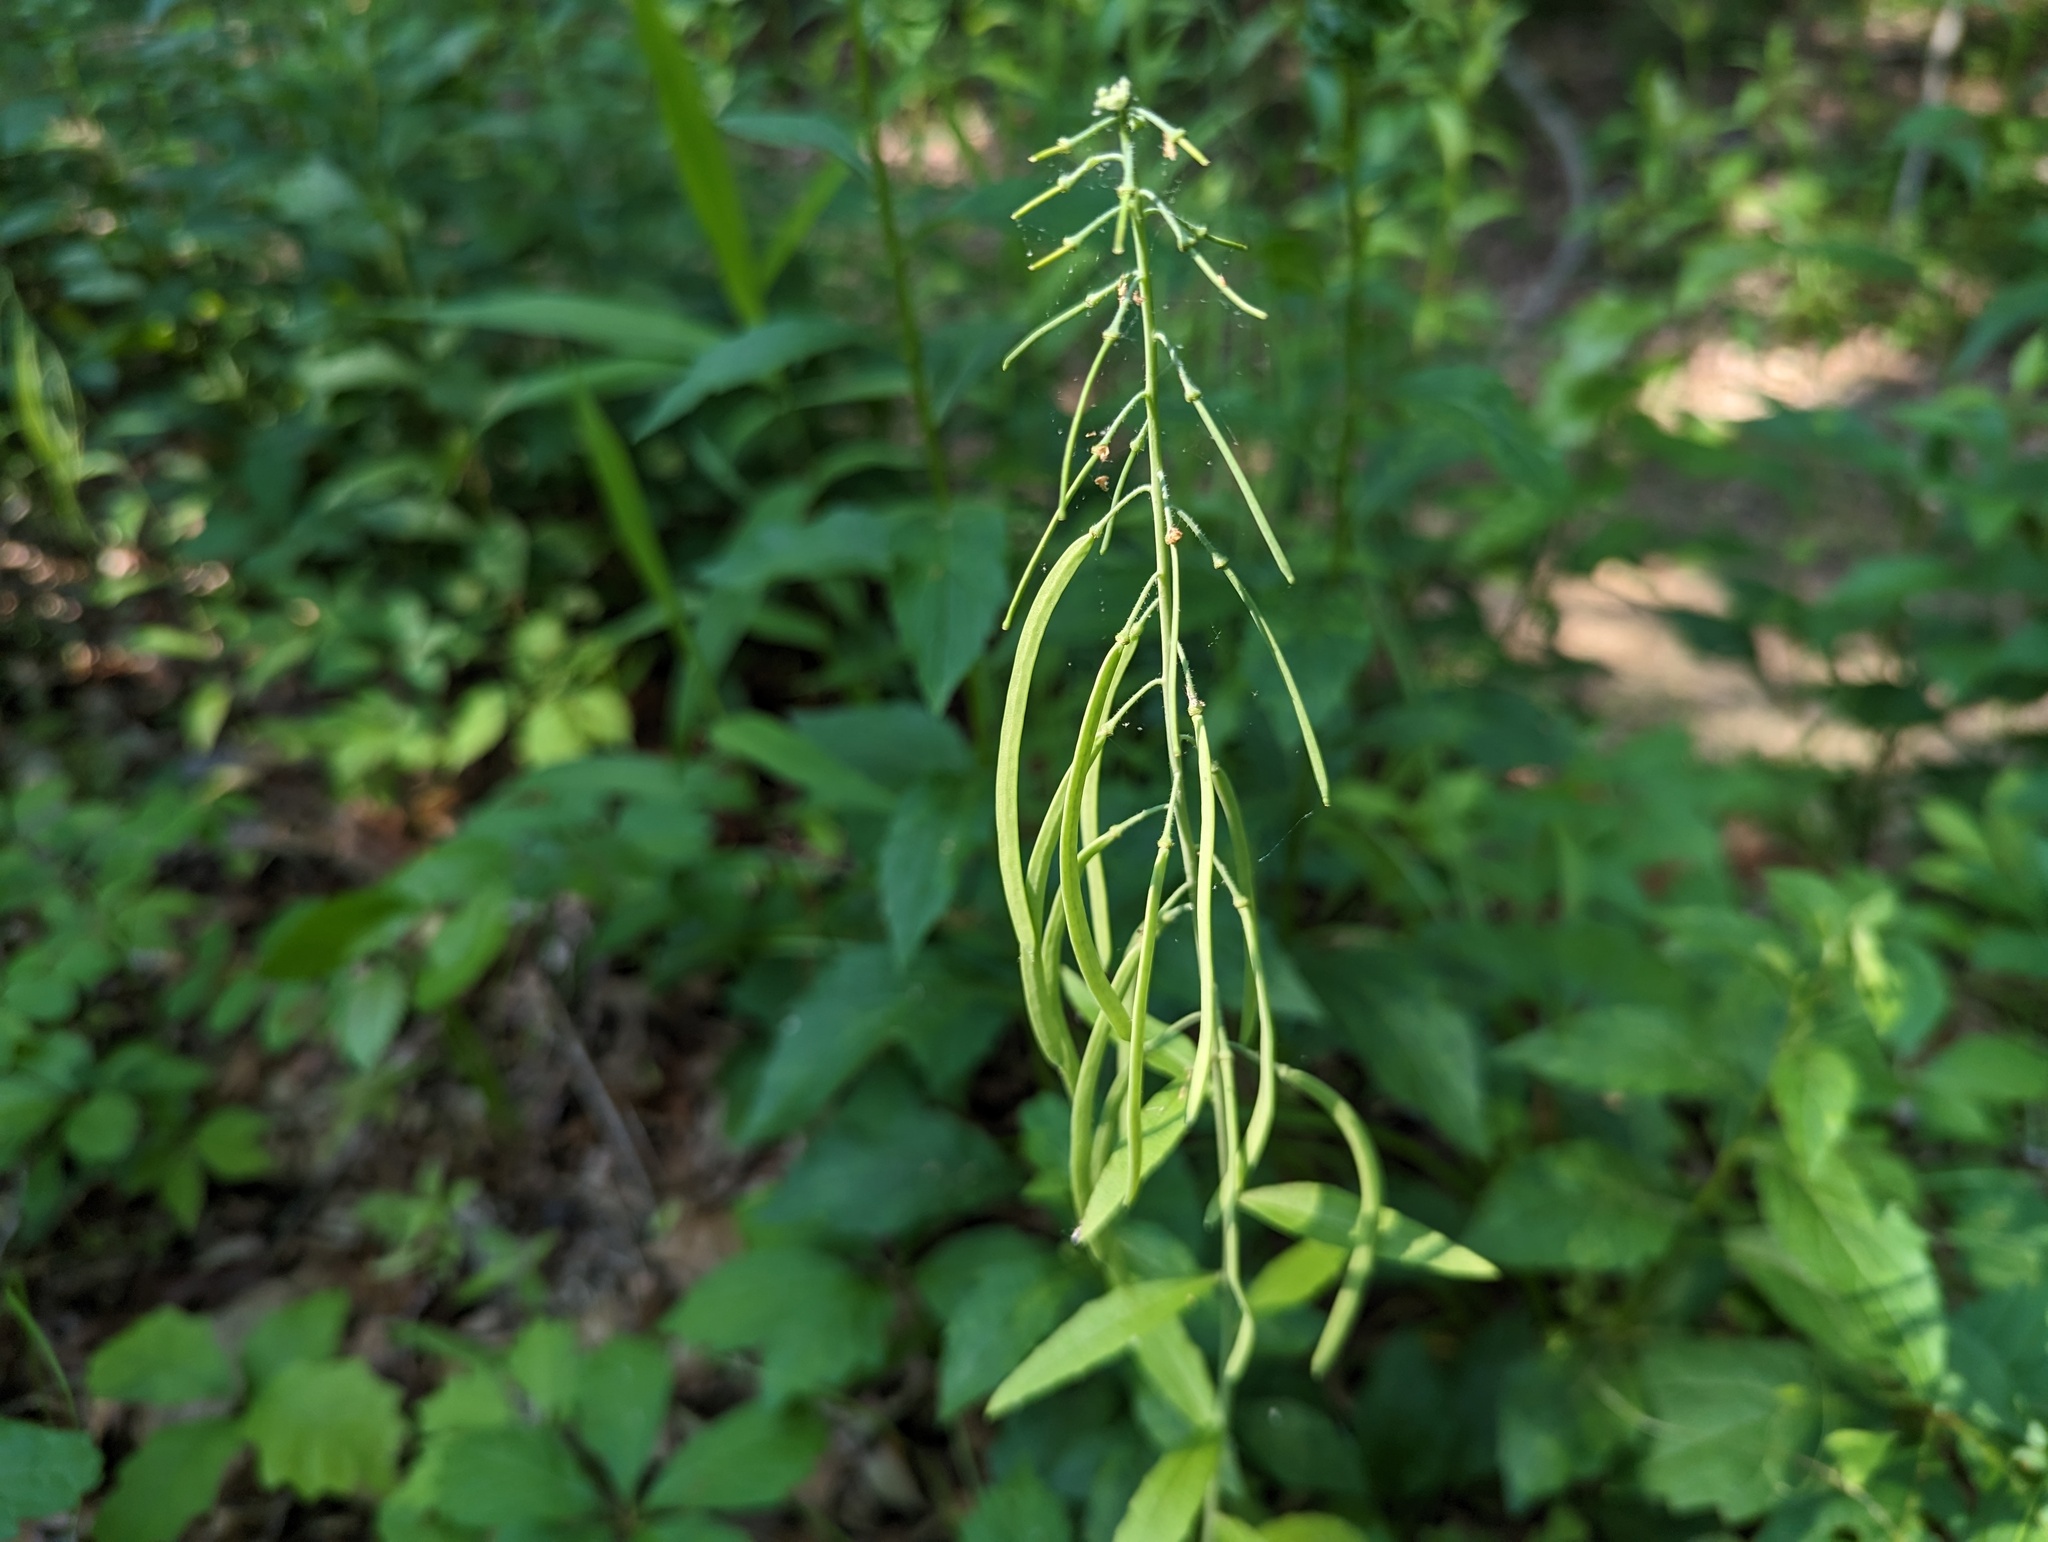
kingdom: Plantae
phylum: Tracheophyta
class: Magnoliopsida
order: Brassicales
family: Brassicaceae
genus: Borodinia
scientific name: Borodinia canadensis
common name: Sicklepod
